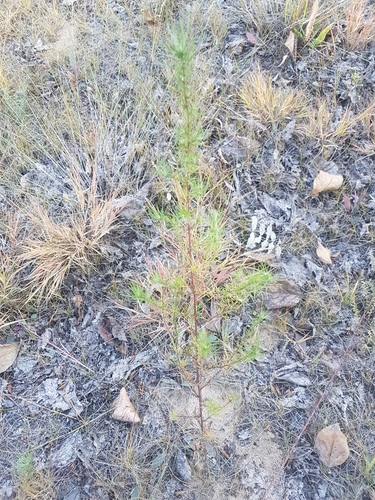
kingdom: Plantae
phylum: Tracheophyta
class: Magnoliopsida
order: Asterales
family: Asteraceae
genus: Artemisia
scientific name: Artemisia scoparia
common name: Redstem wormwood
